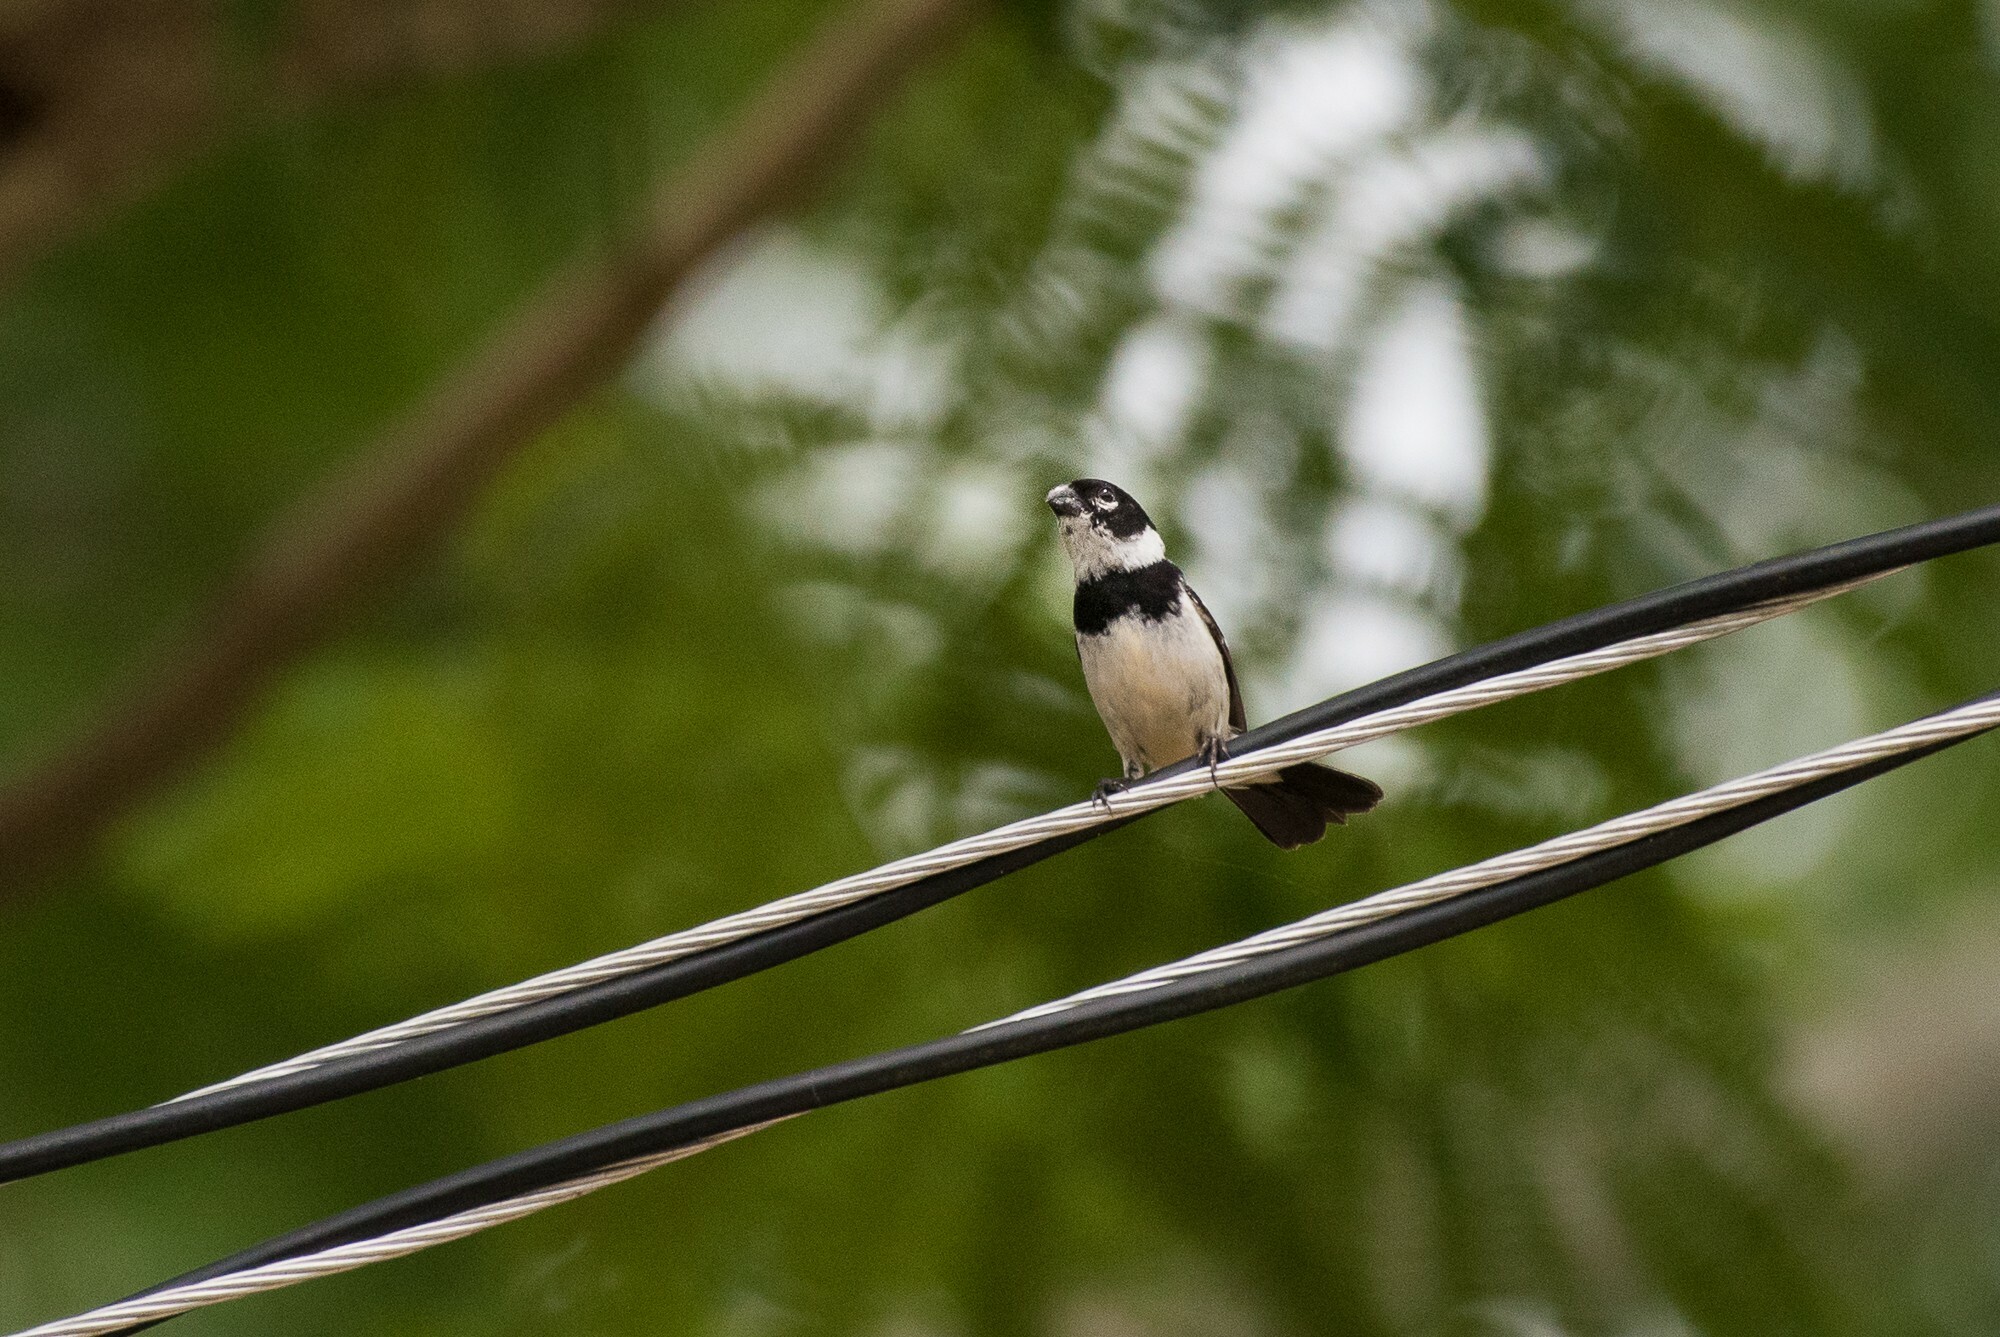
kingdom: Animalia
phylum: Chordata
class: Aves
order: Passeriformes
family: Thraupidae
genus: Sporophila
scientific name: Sporophila morelleti
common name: Morelet's seedeater
